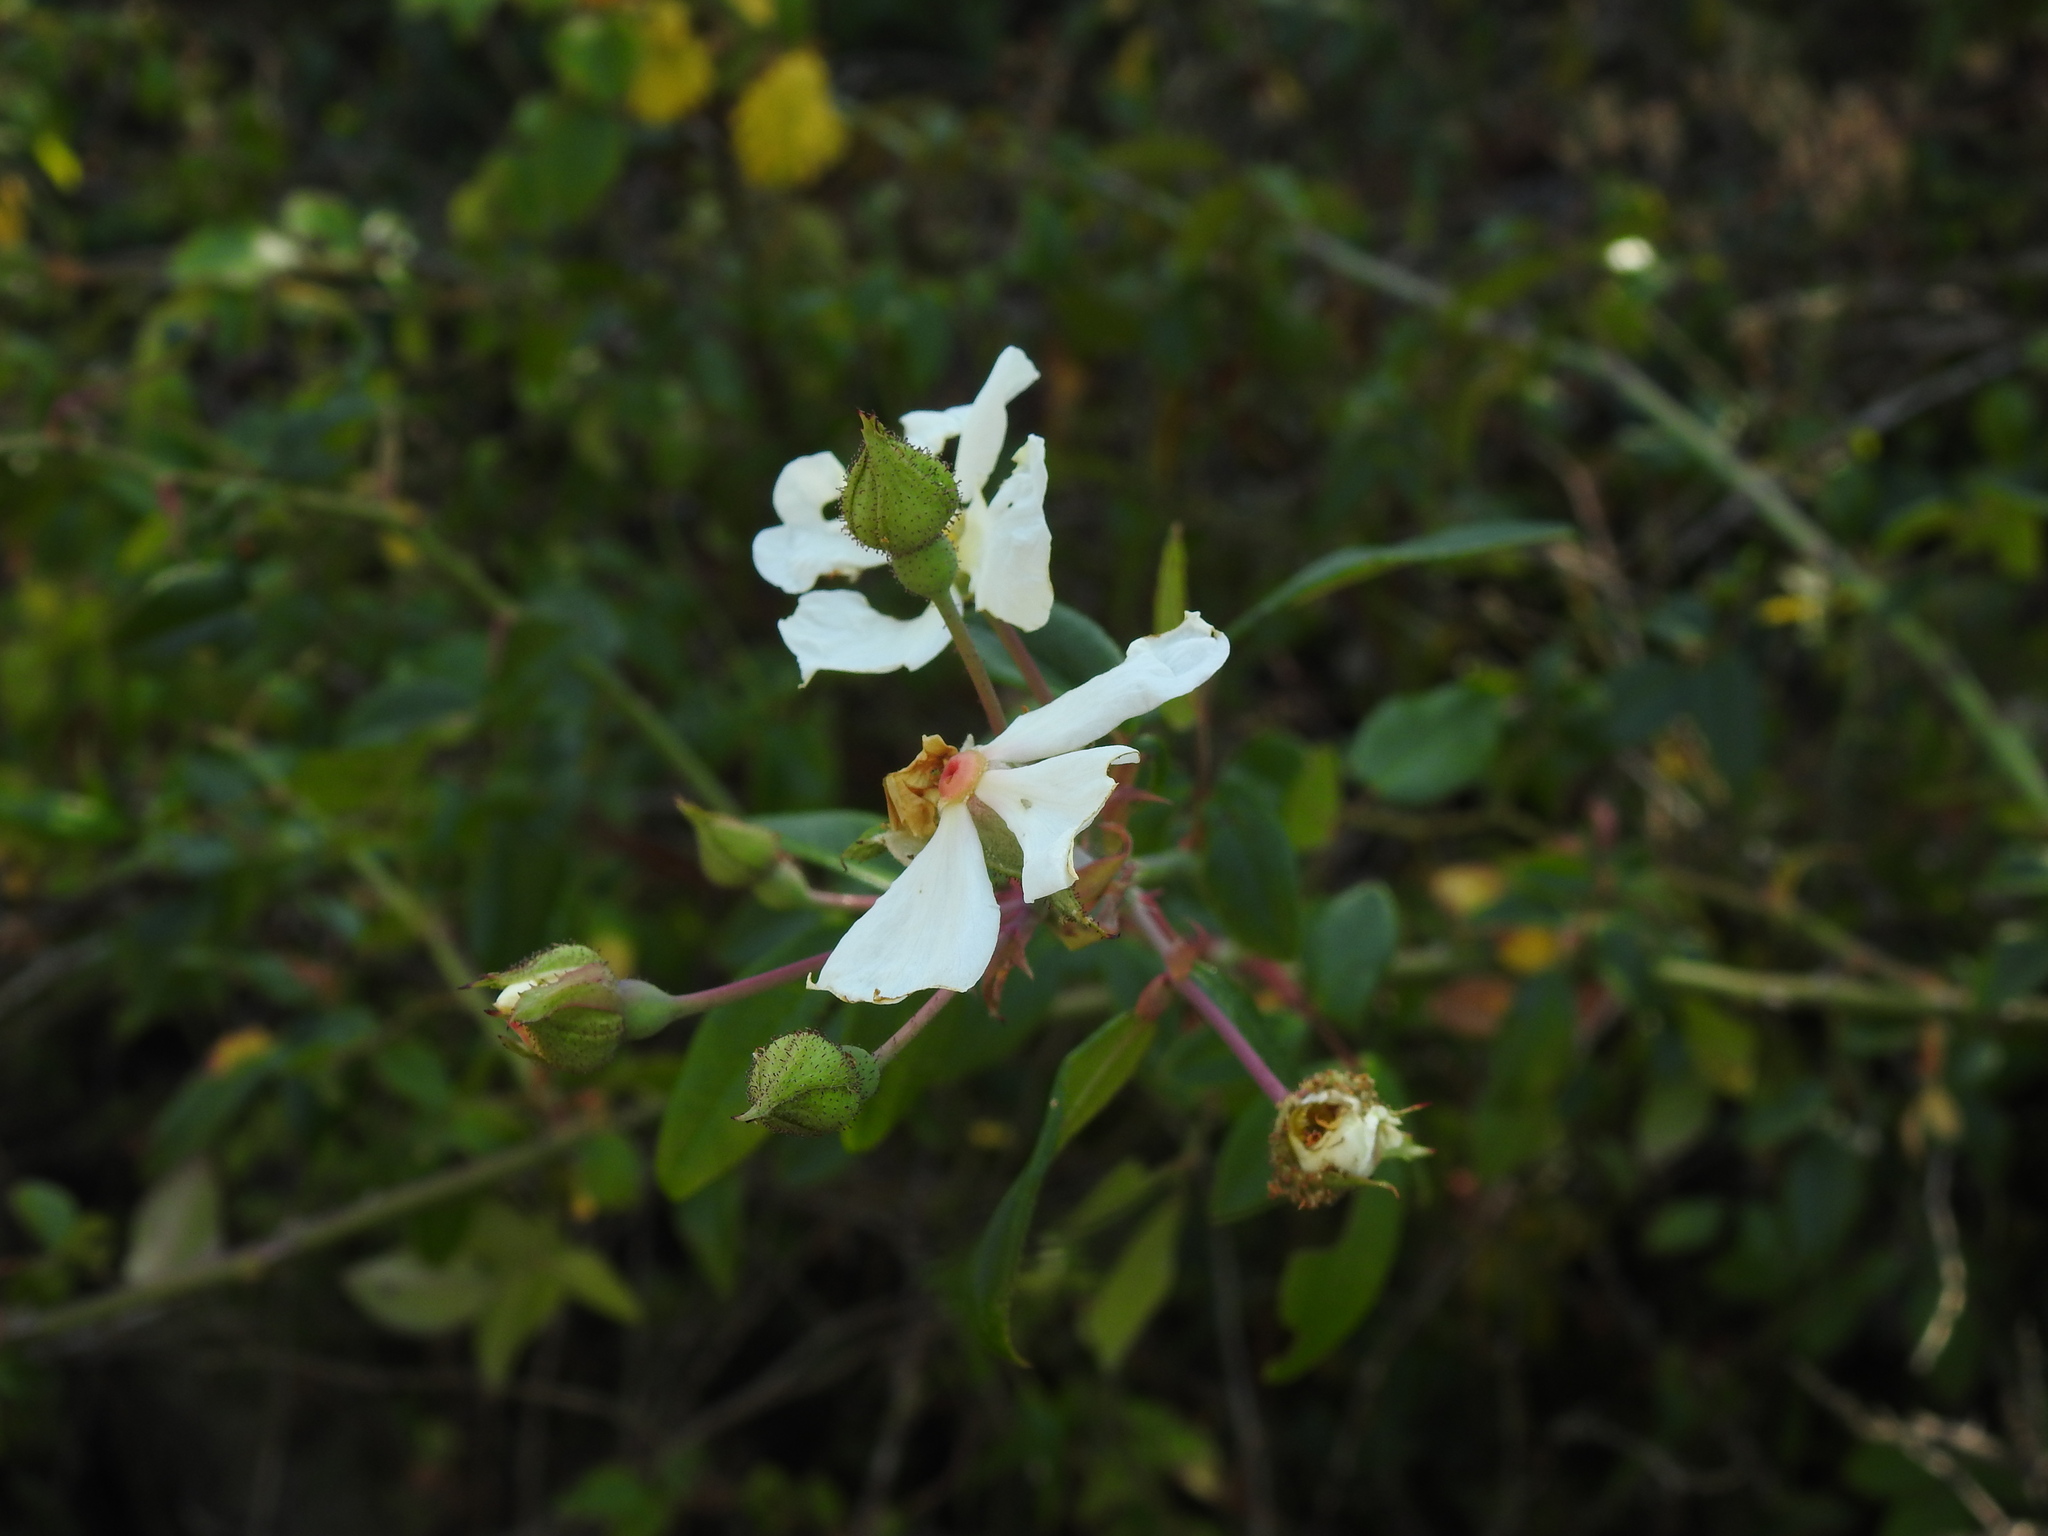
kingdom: Plantae
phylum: Tracheophyta
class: Magnoliopsida
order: Rosales
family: Rosaceae
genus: Rosa
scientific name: Rosa sempervirens
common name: Evergreen rose
